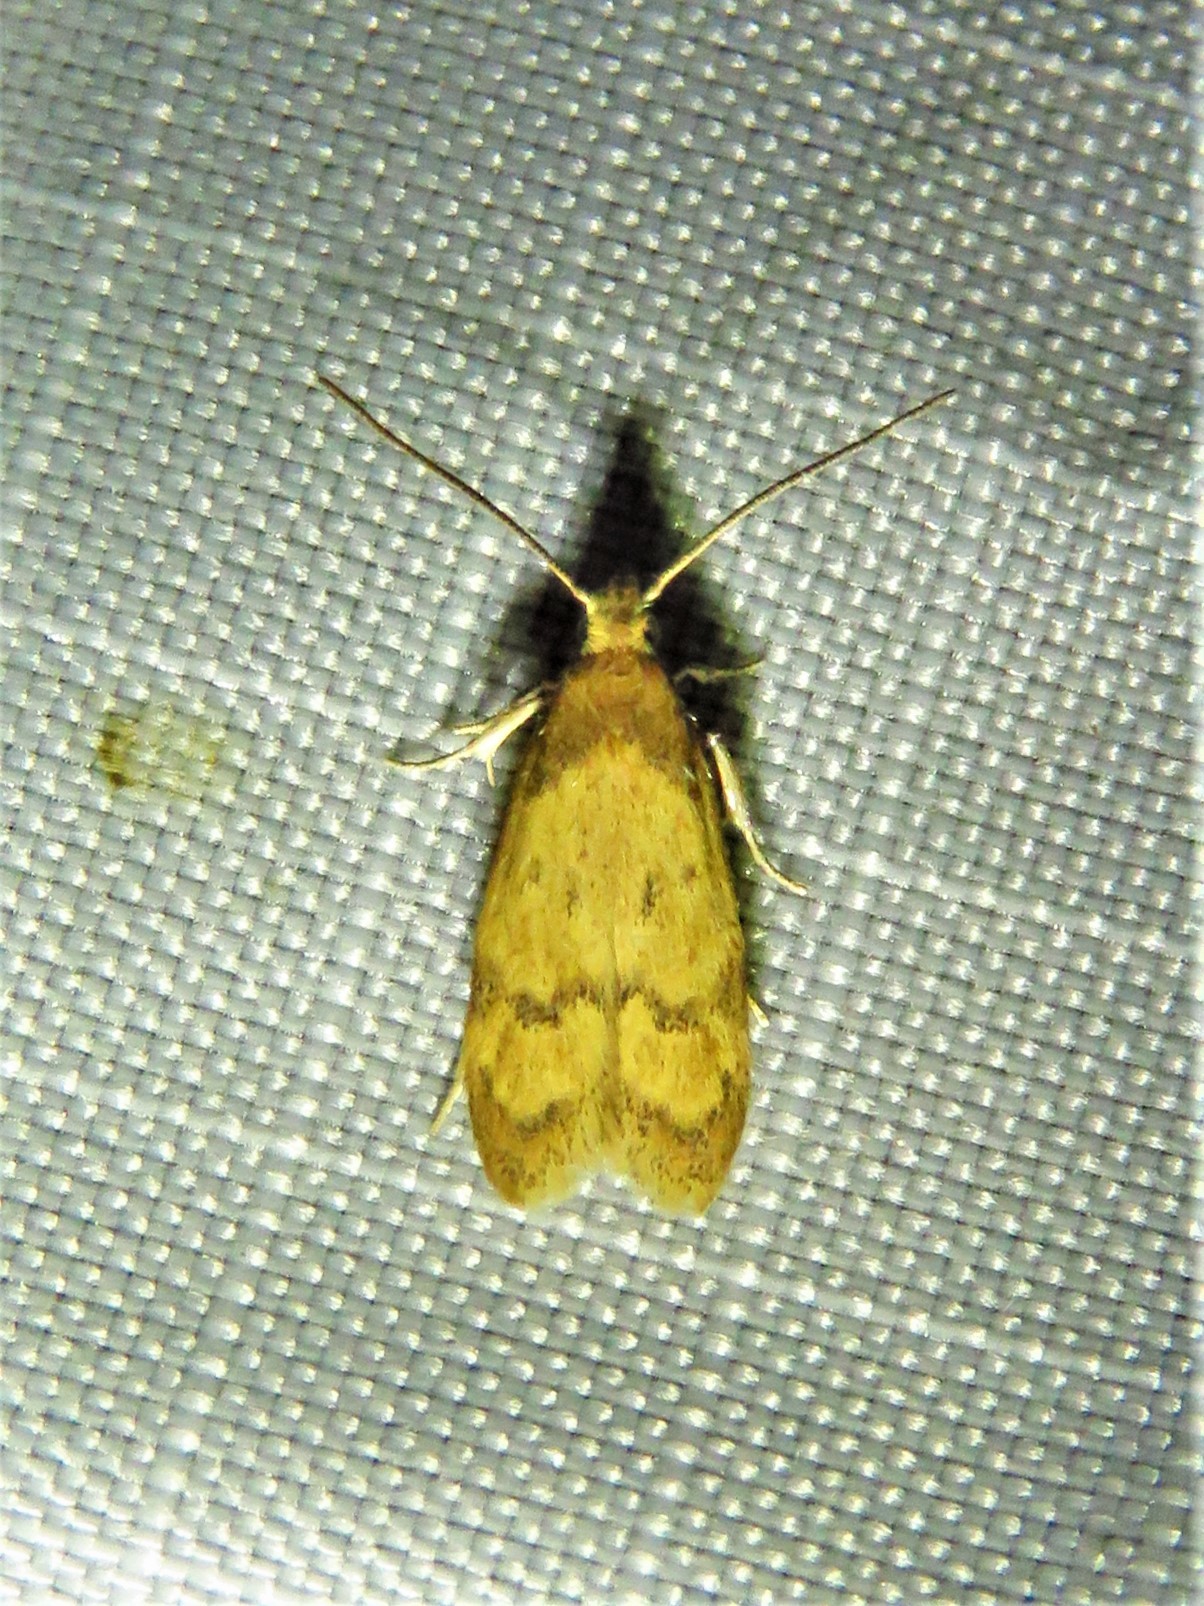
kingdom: Animalia
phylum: Arthropoda
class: Insecta
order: Lepidoptera
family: Autostichidae
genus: Gerdana
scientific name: Gerdana caritella
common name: Gerdana moth
